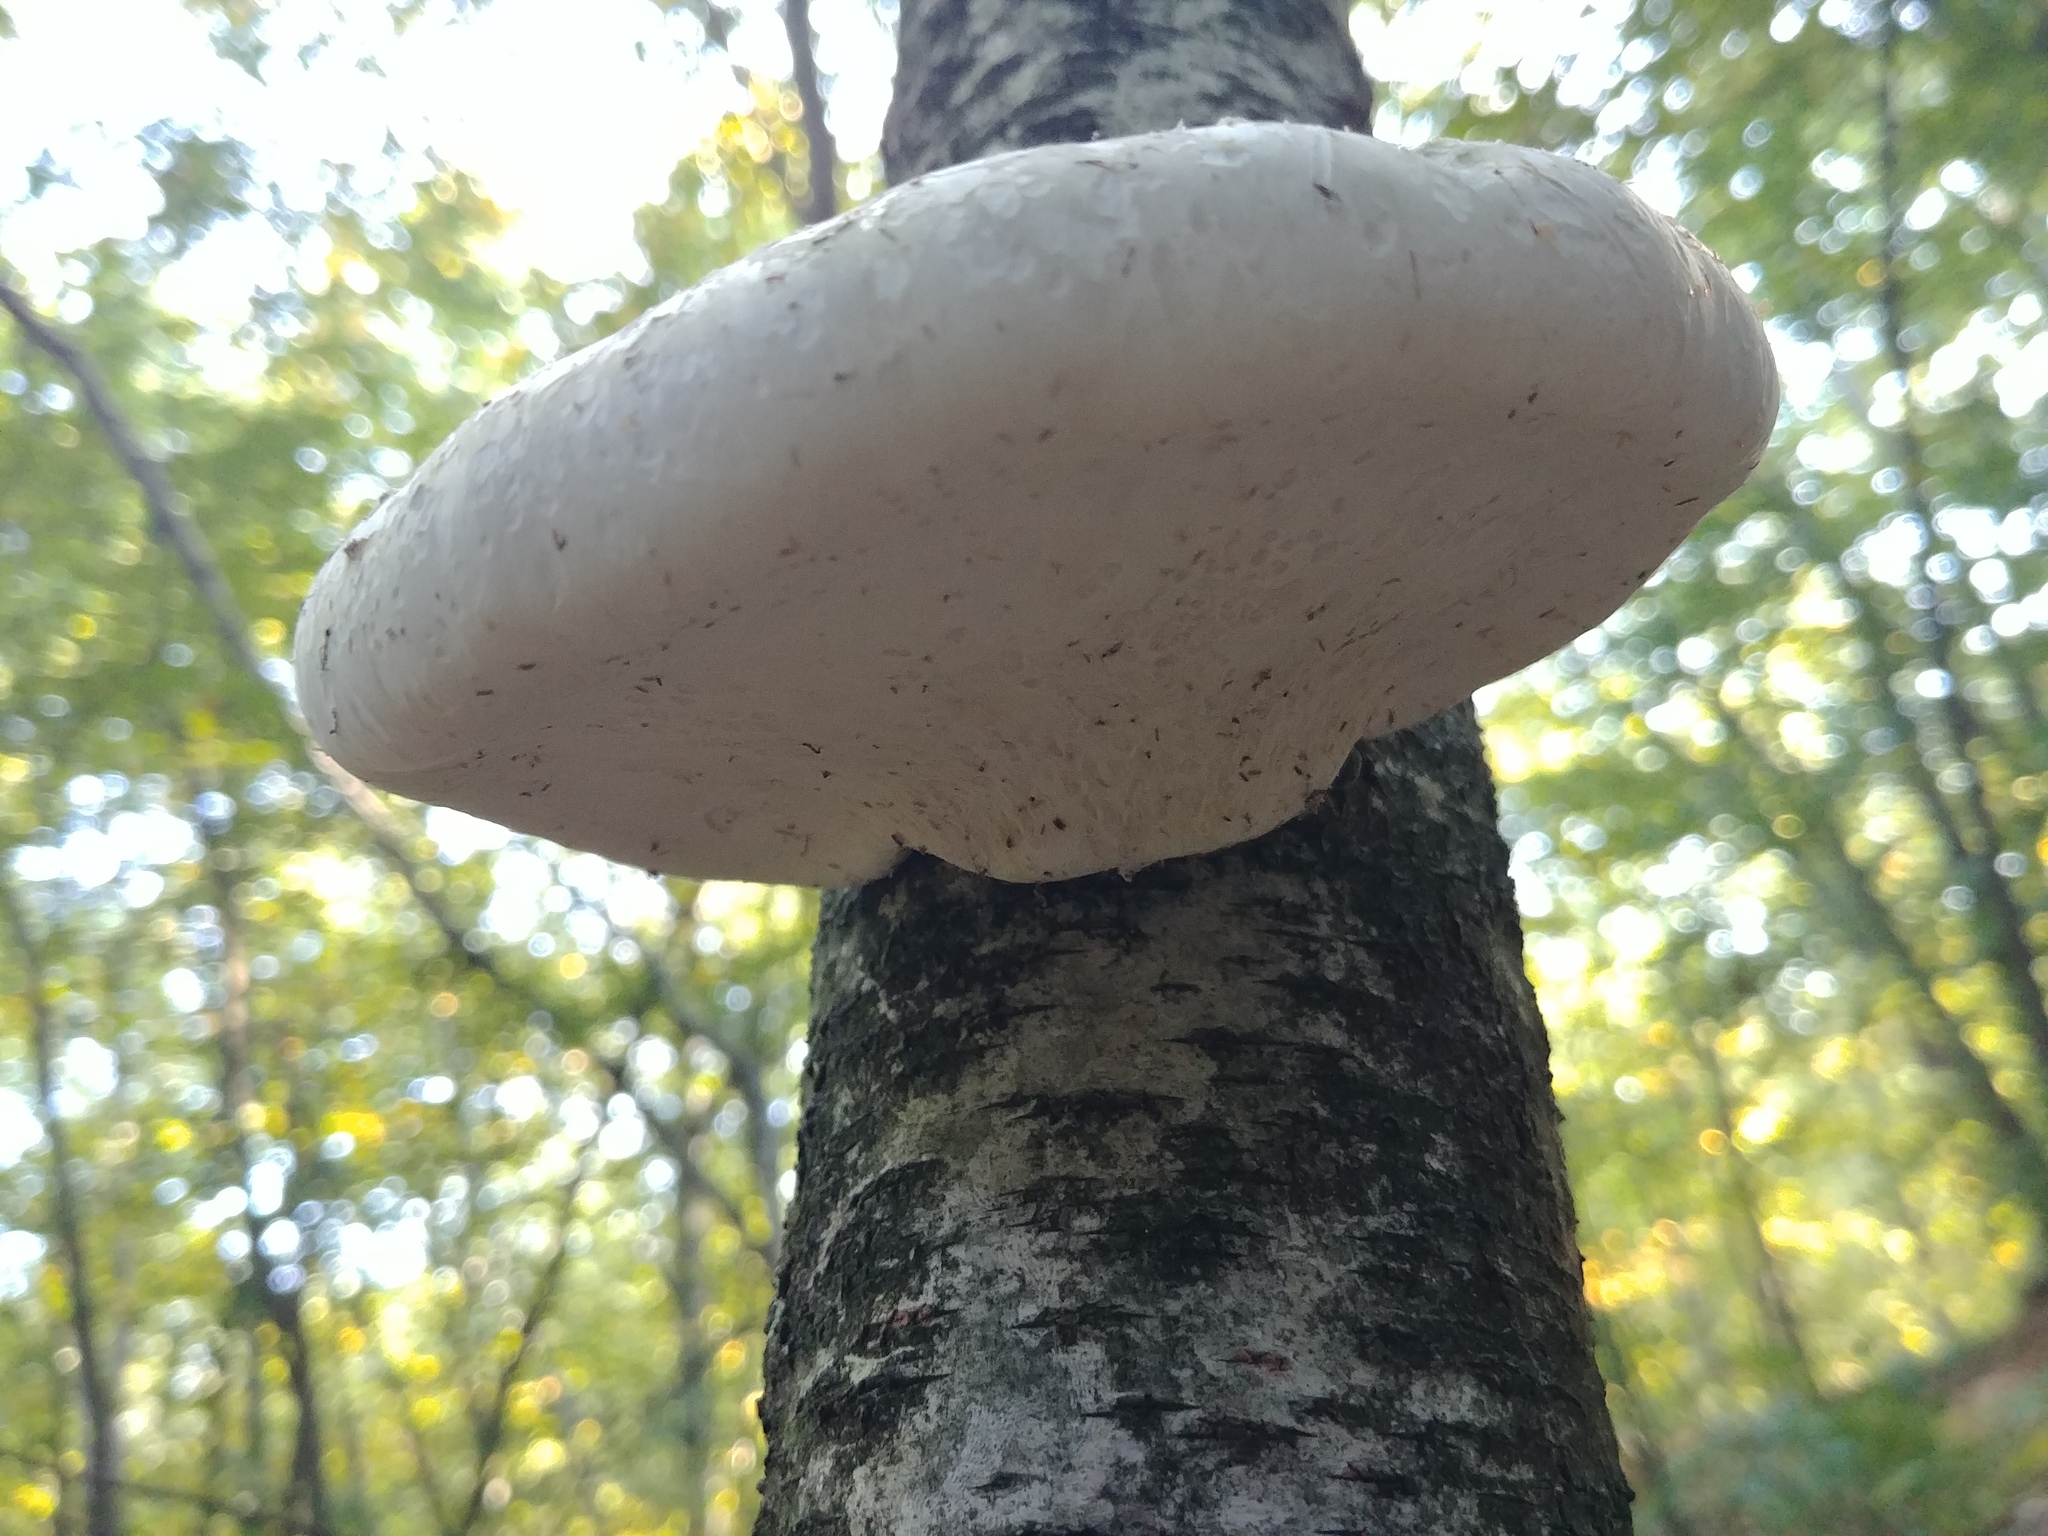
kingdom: Fungi
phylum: Basidiomycota
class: Agaricomycetes
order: Polyporales
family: Fomitopsidaceae
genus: Fomitopsis
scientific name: Fomitopsis betulina
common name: Birch polypore
